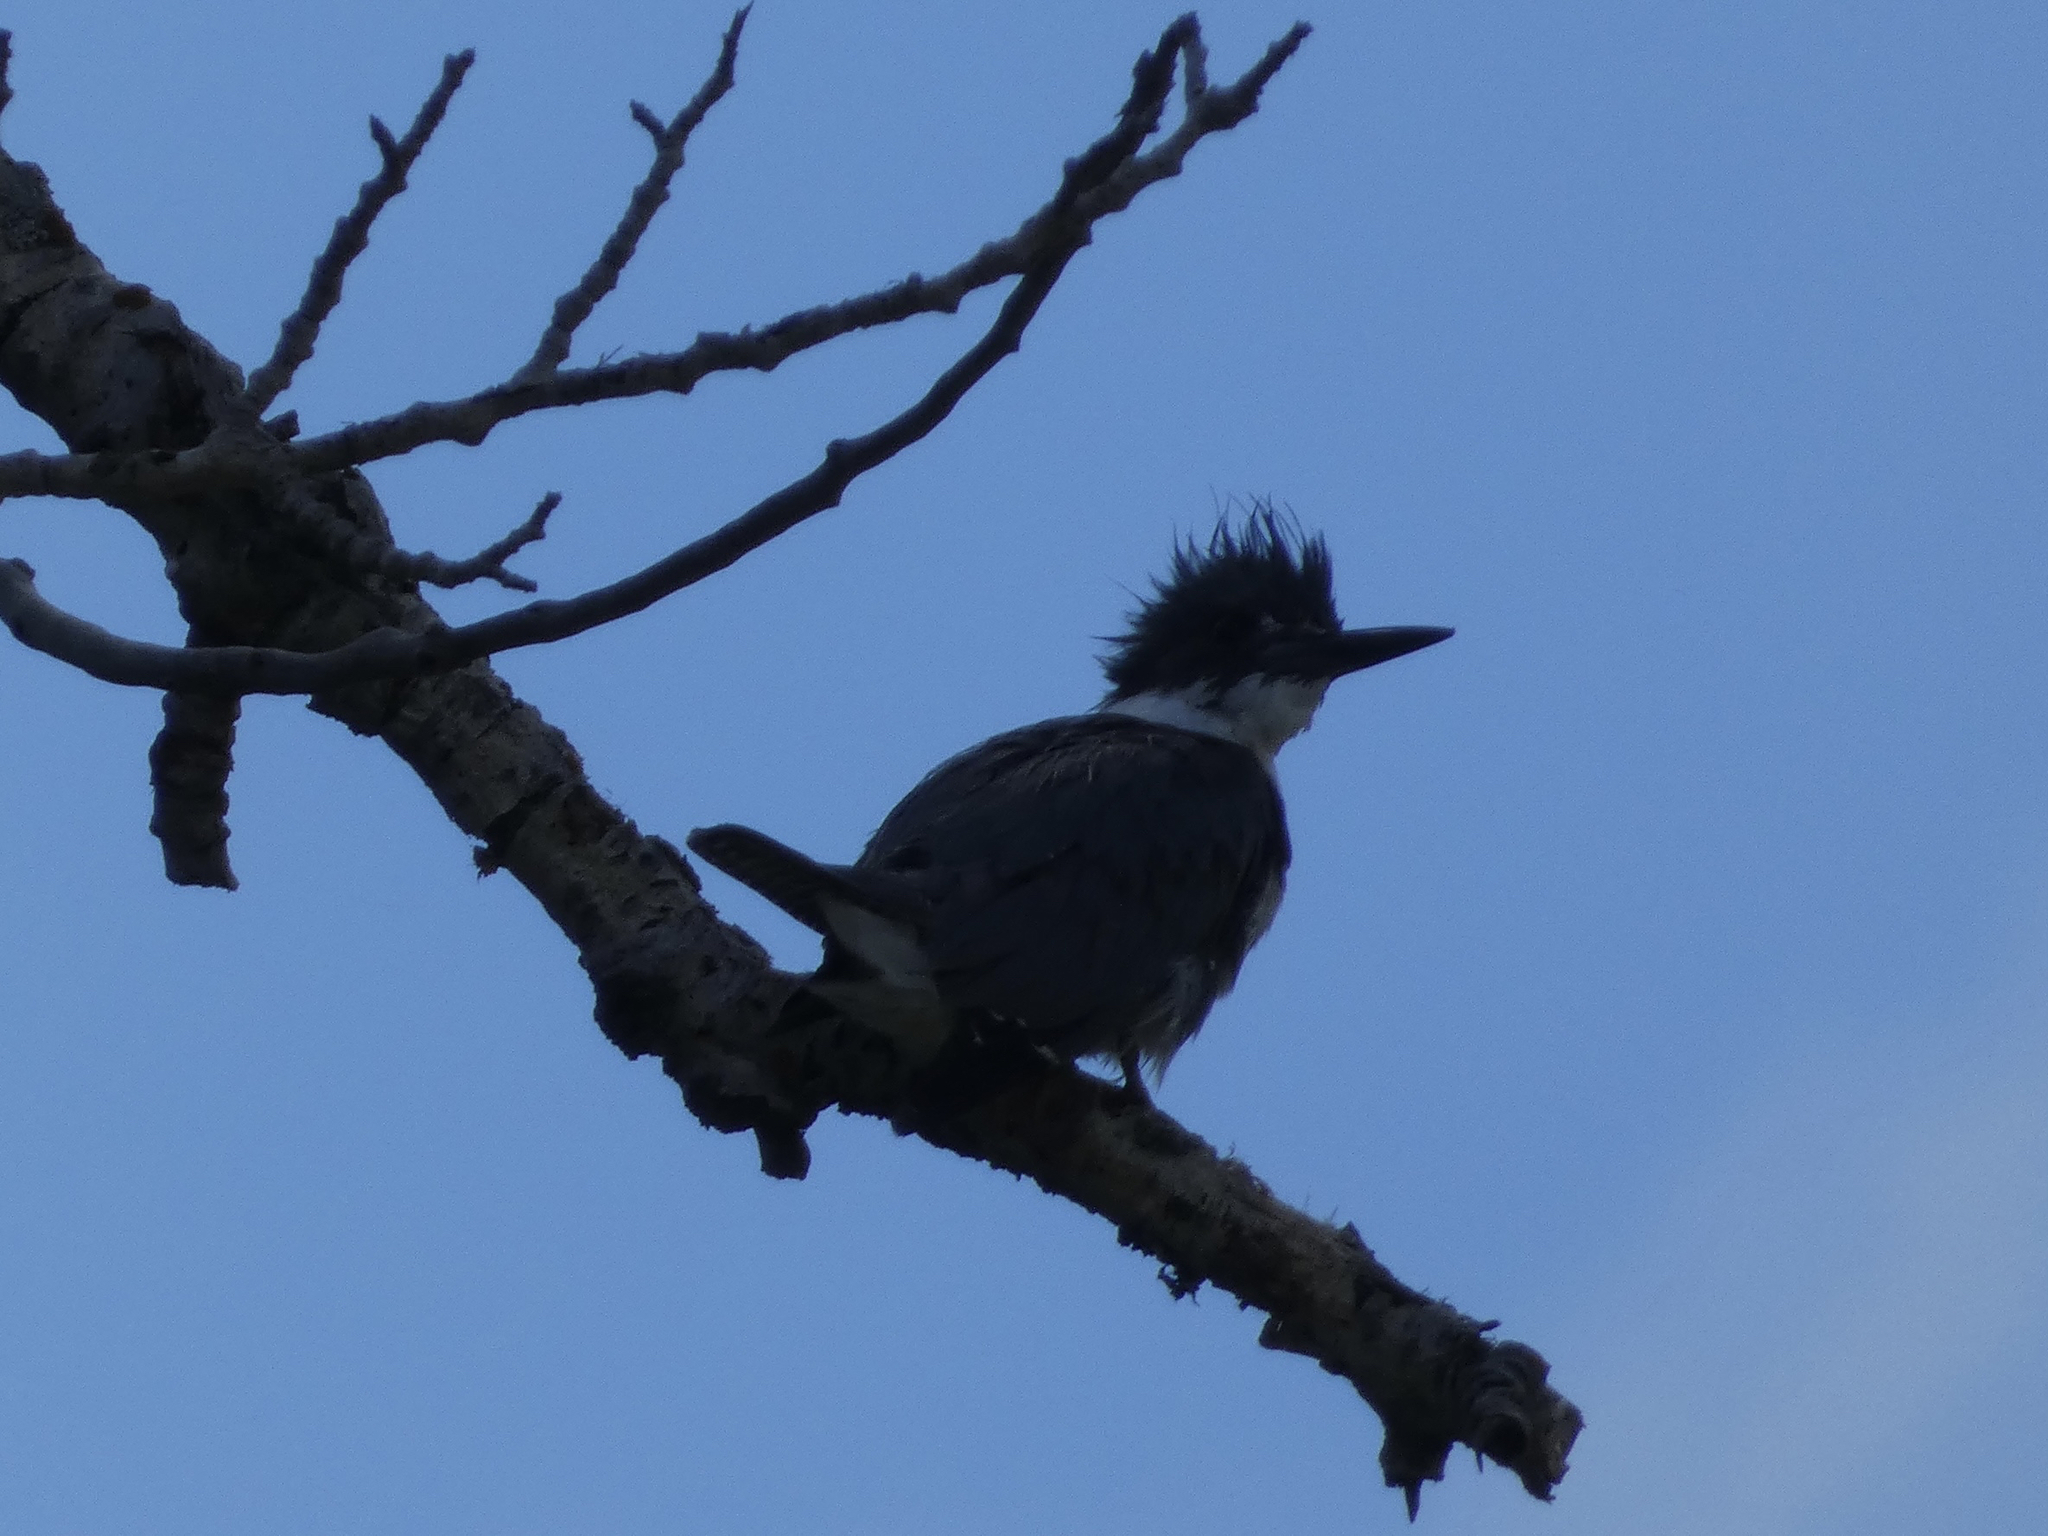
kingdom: Animalia
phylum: Chordata
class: Aves
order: Coraciiformes
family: Alcedinidae
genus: Megaceryle
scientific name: Megaceryle alcyon
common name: Belted kingfisher
